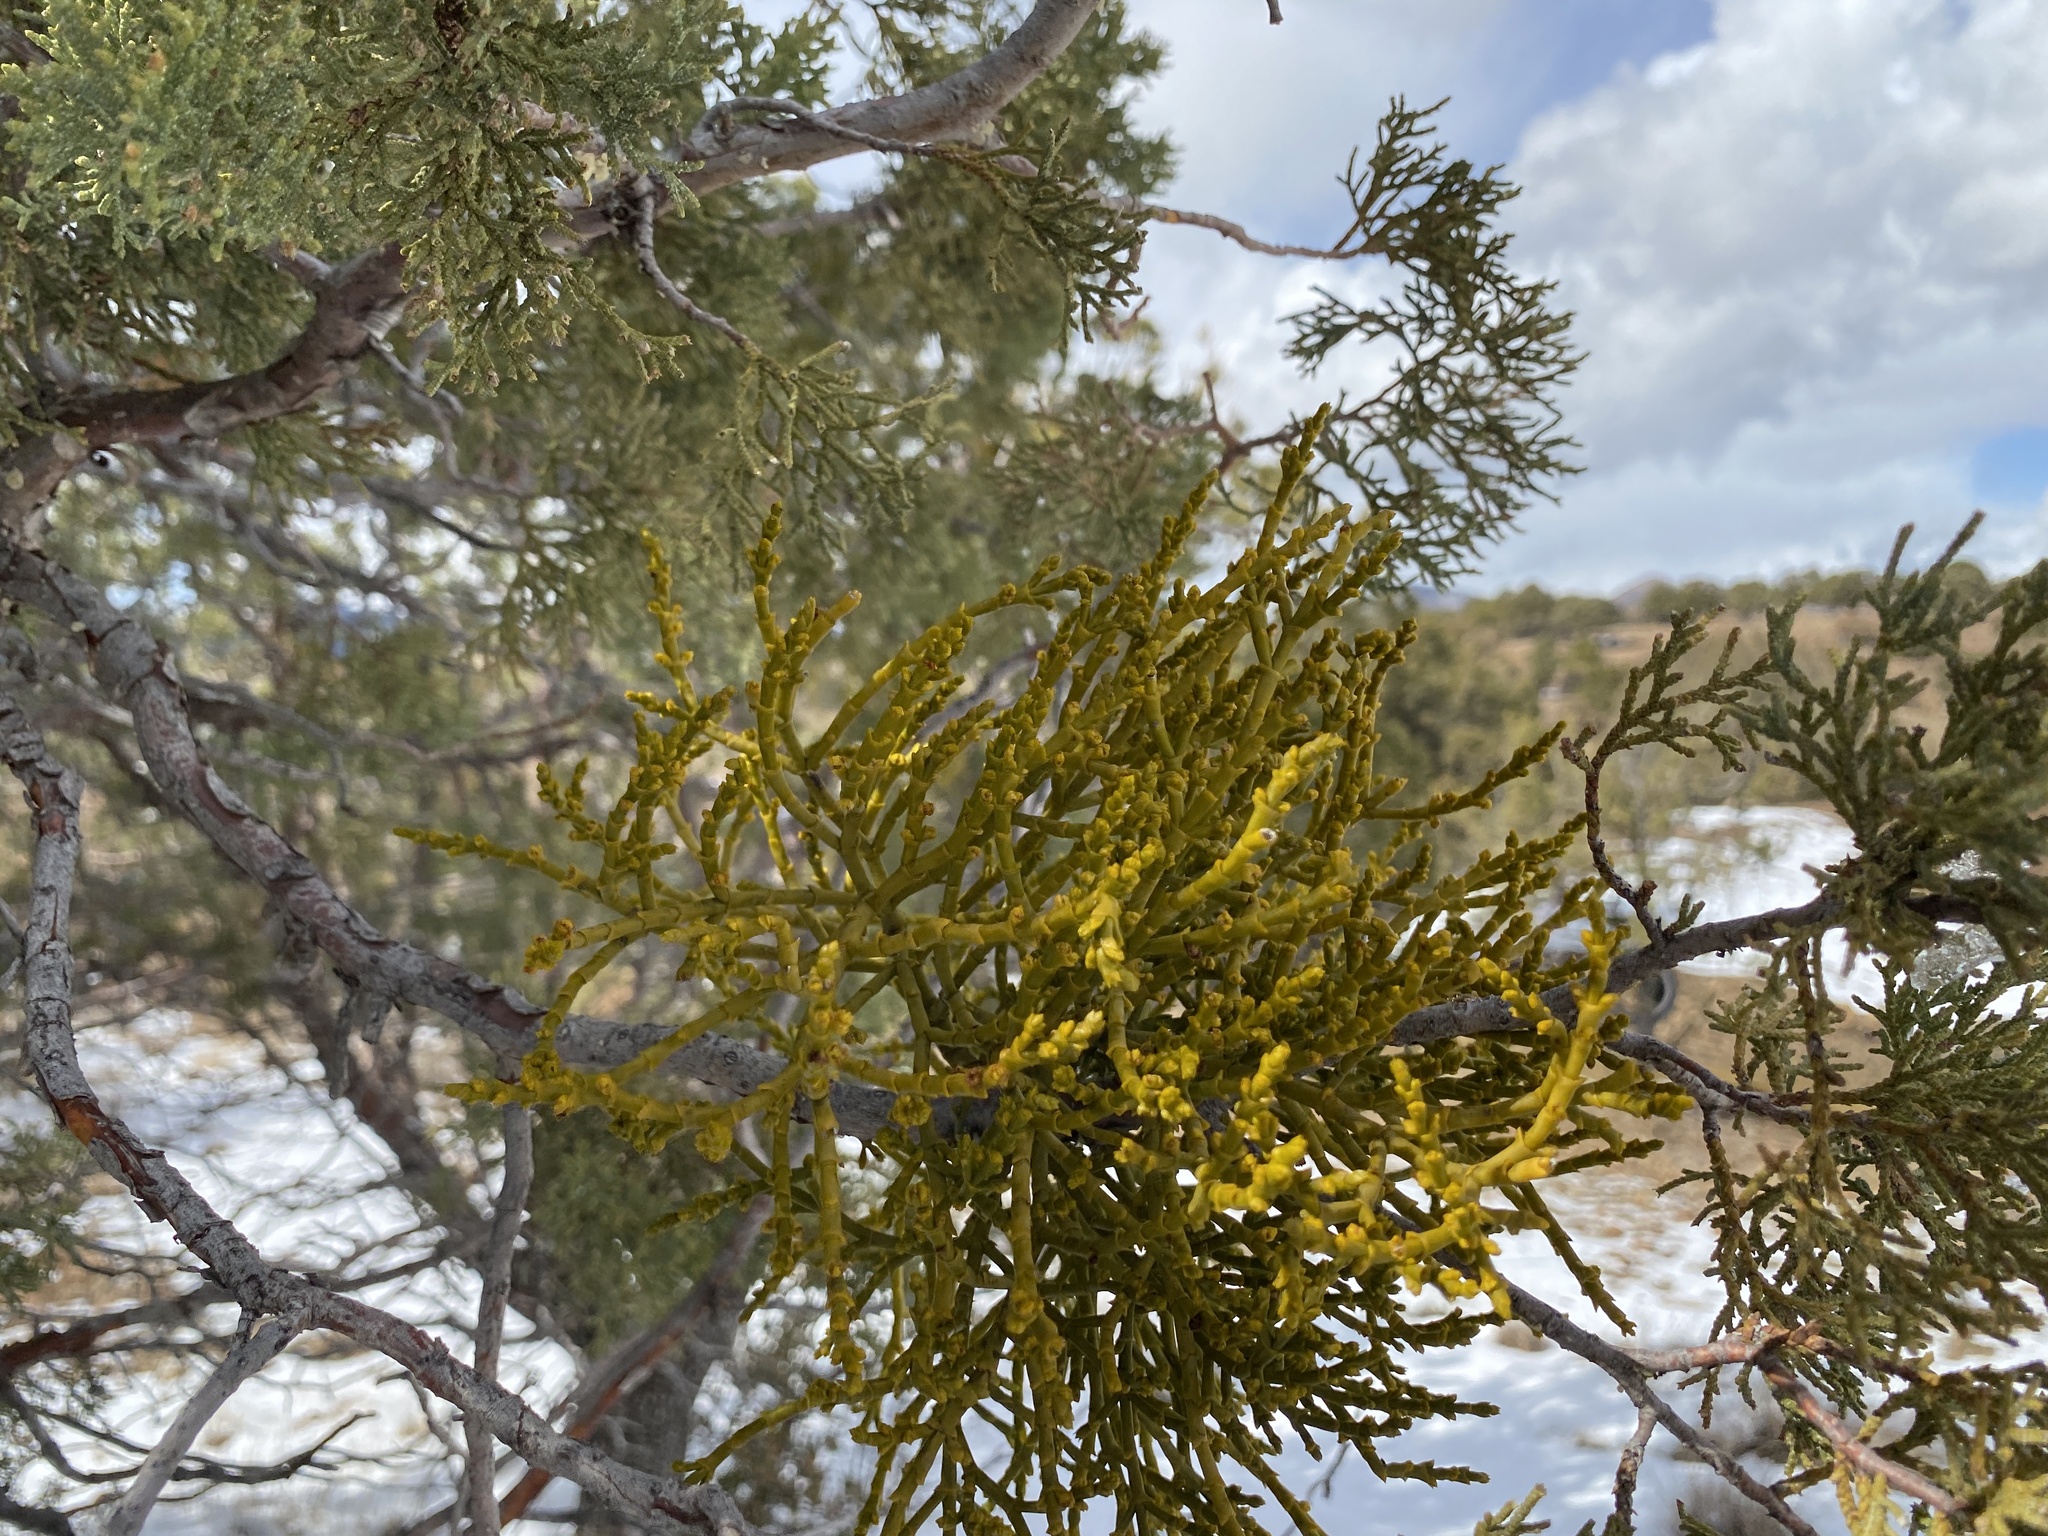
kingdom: Plantae
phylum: Tracheophyta
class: Magnoliopsida
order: Santalales
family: Viscaceae
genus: Phoradendron
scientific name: Phoradendron juniperinum
